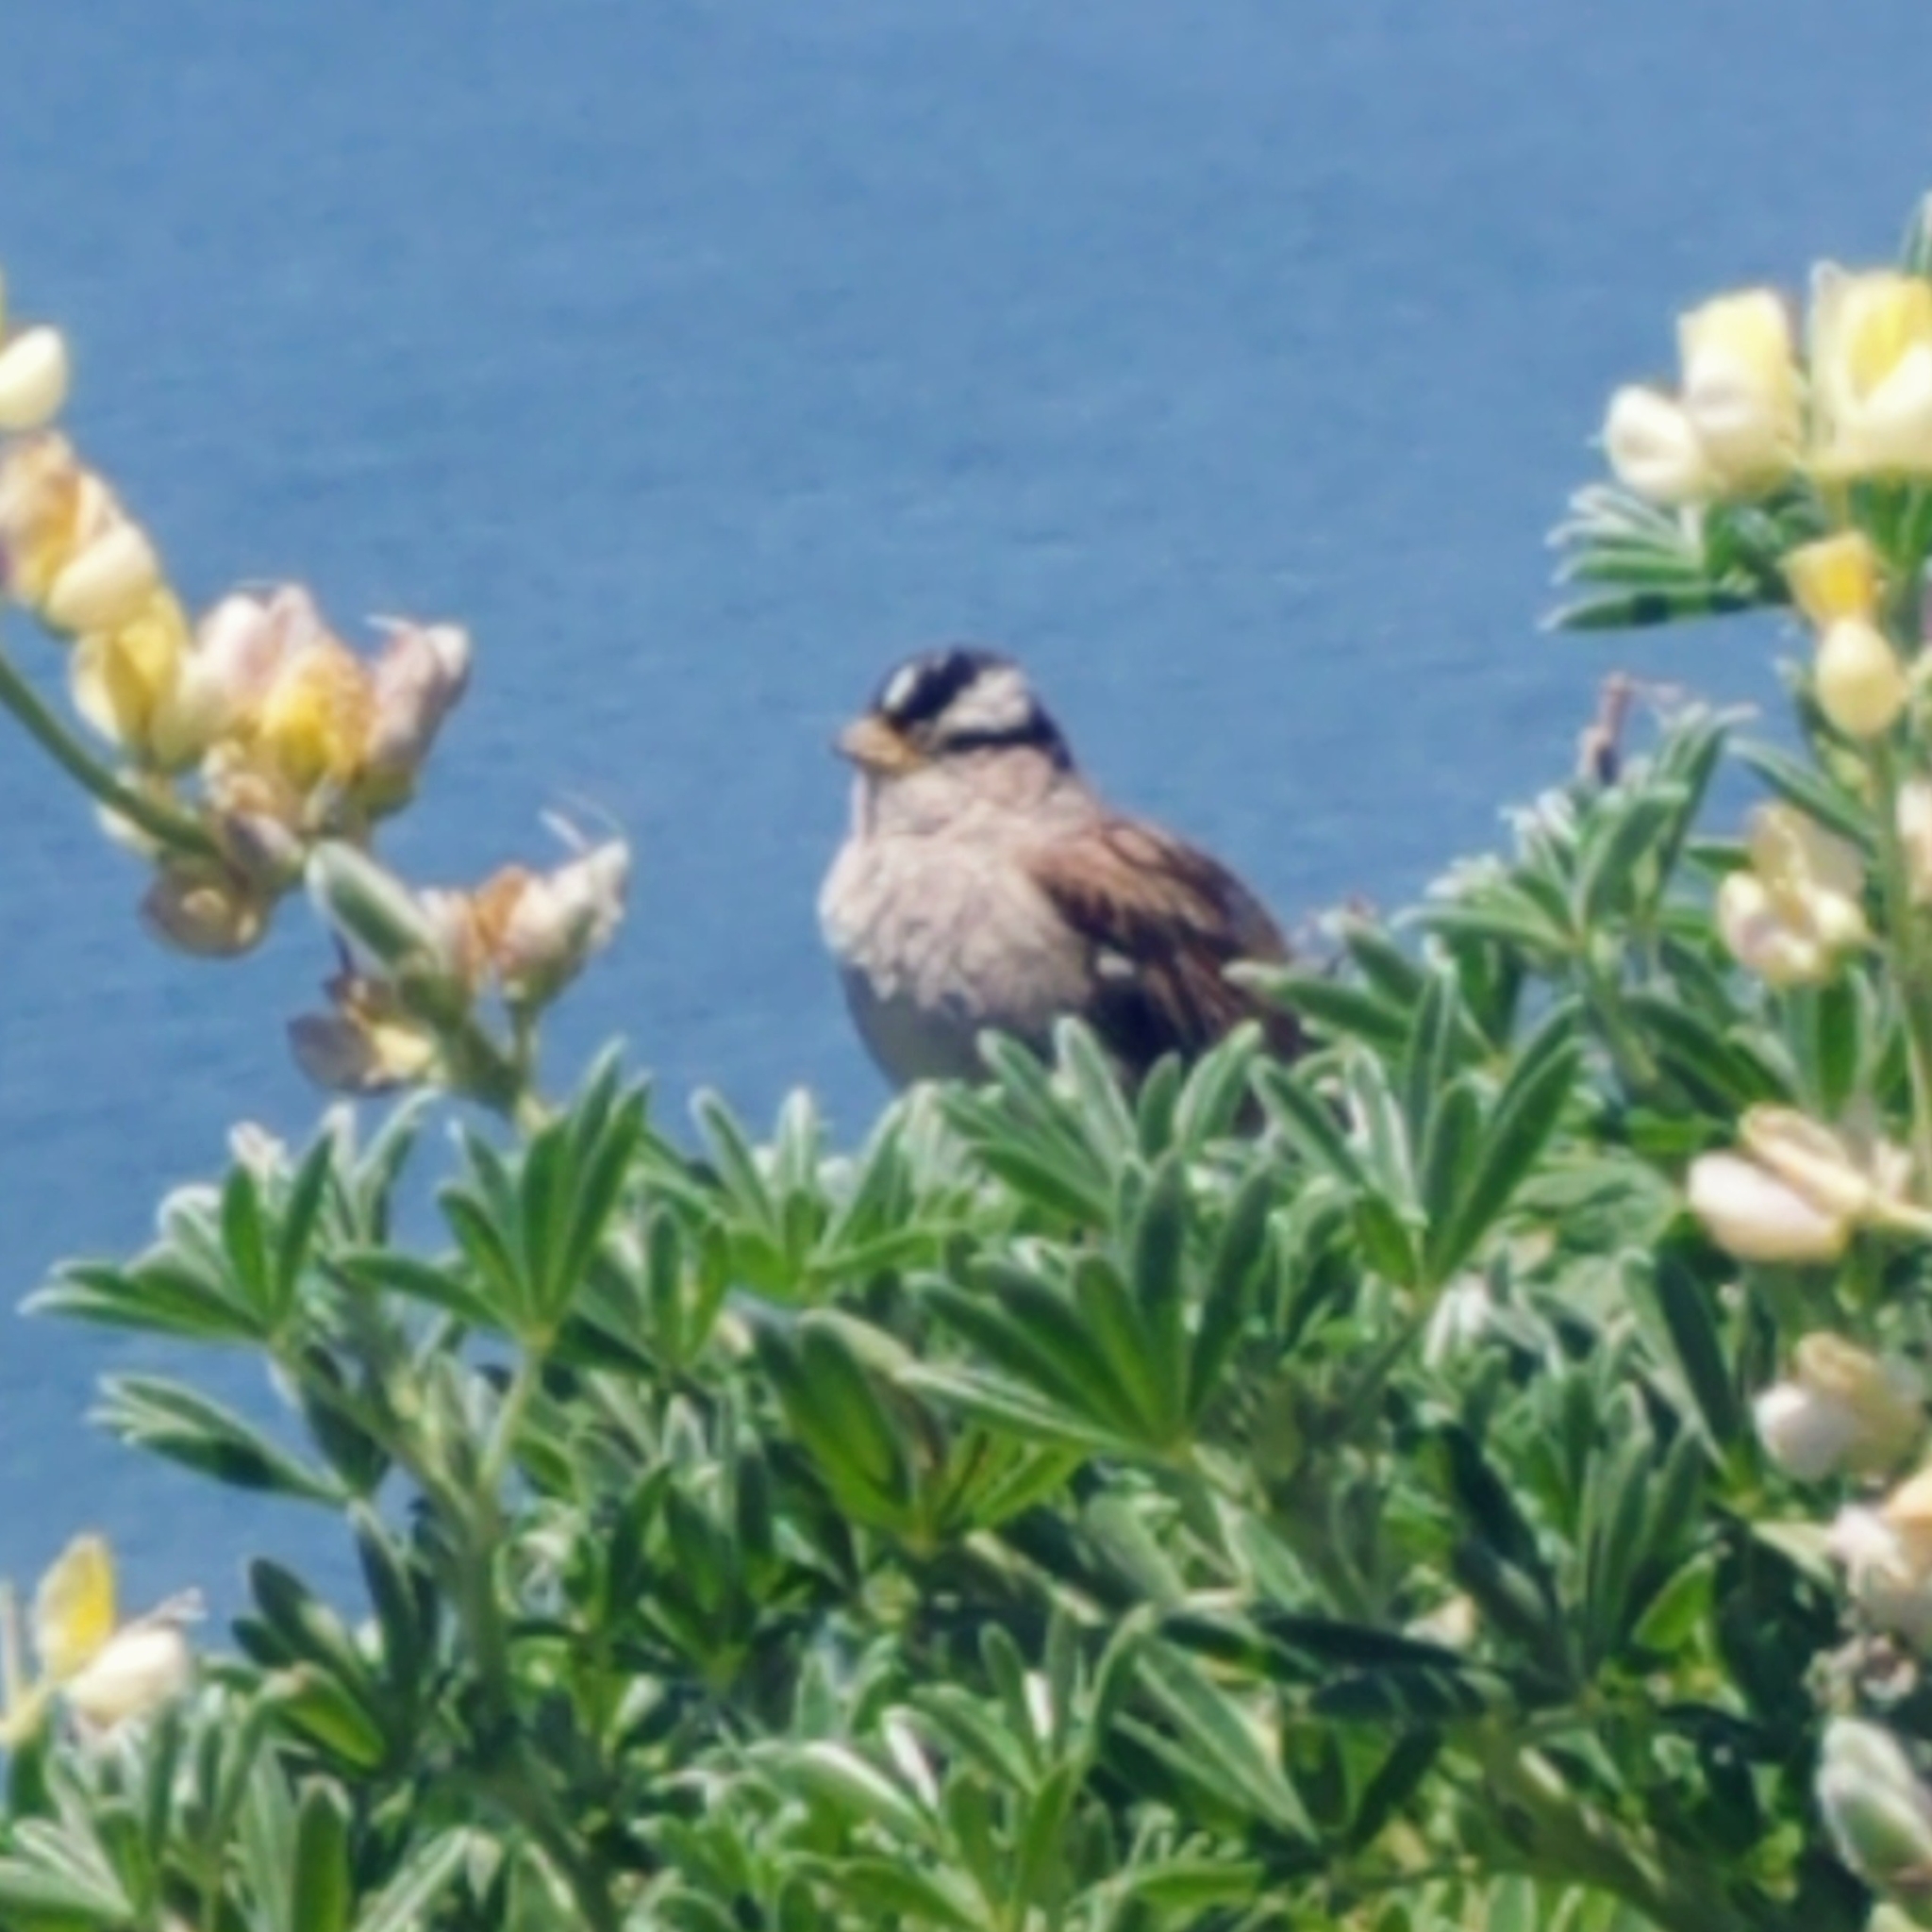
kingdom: Animalia
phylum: Chordata
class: Aves
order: Passeriformes
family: Passerellidae
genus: Zonotrichia
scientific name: Zonotrichia leucophrys
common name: White-crowned sparrow
